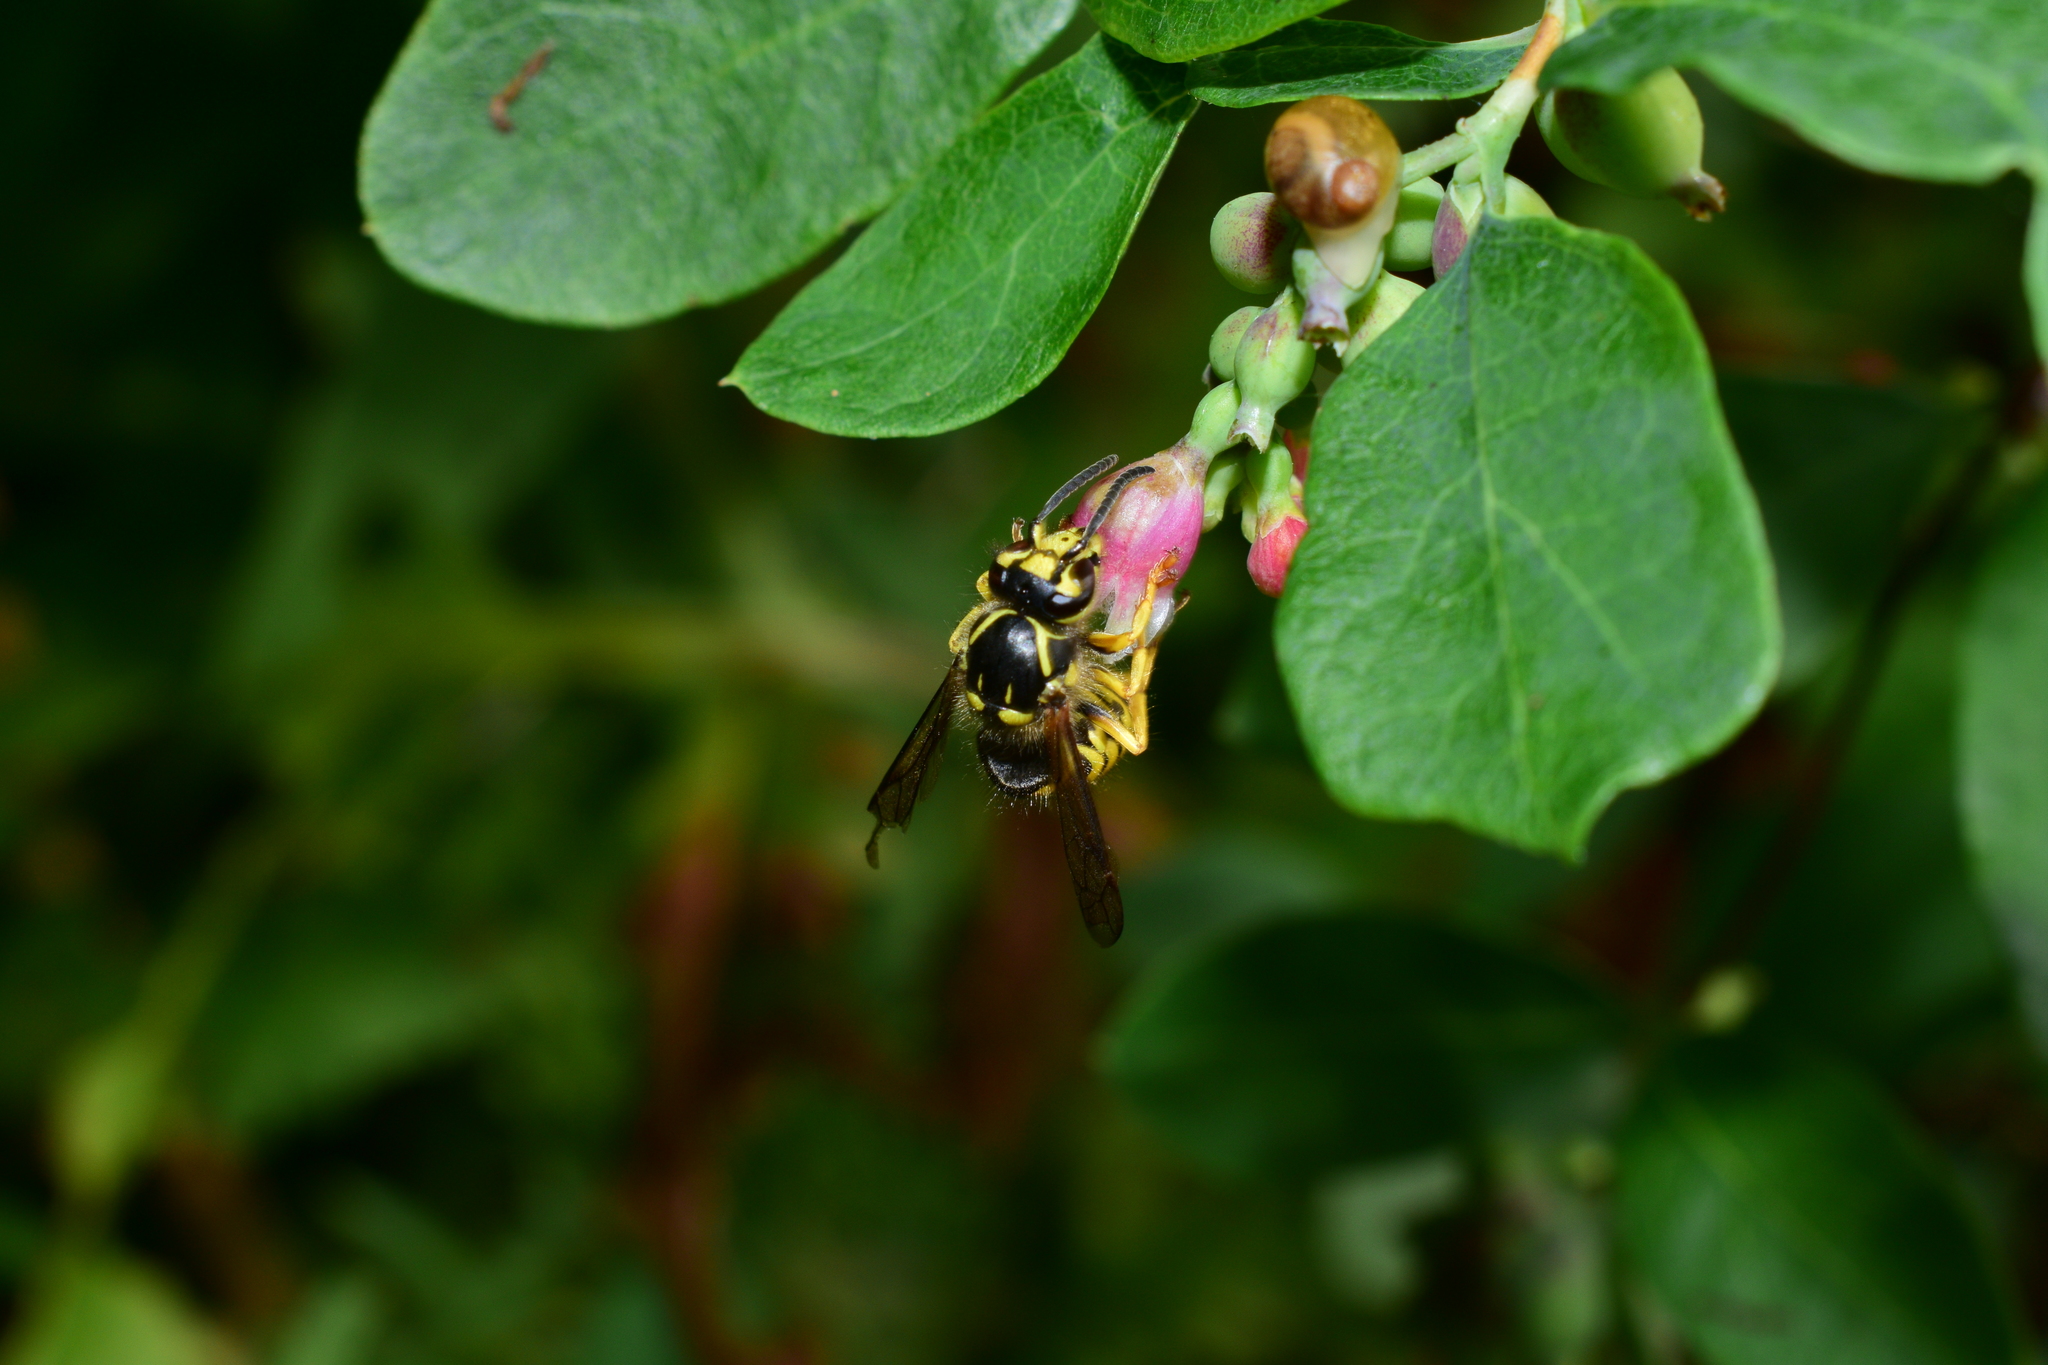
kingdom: Animalia
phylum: Arthropoda
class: Insecta
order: Hymenoptera
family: Vespidae
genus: Dolichovespula
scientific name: Dolichovespula arenaria
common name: Aerial yellowjacket
